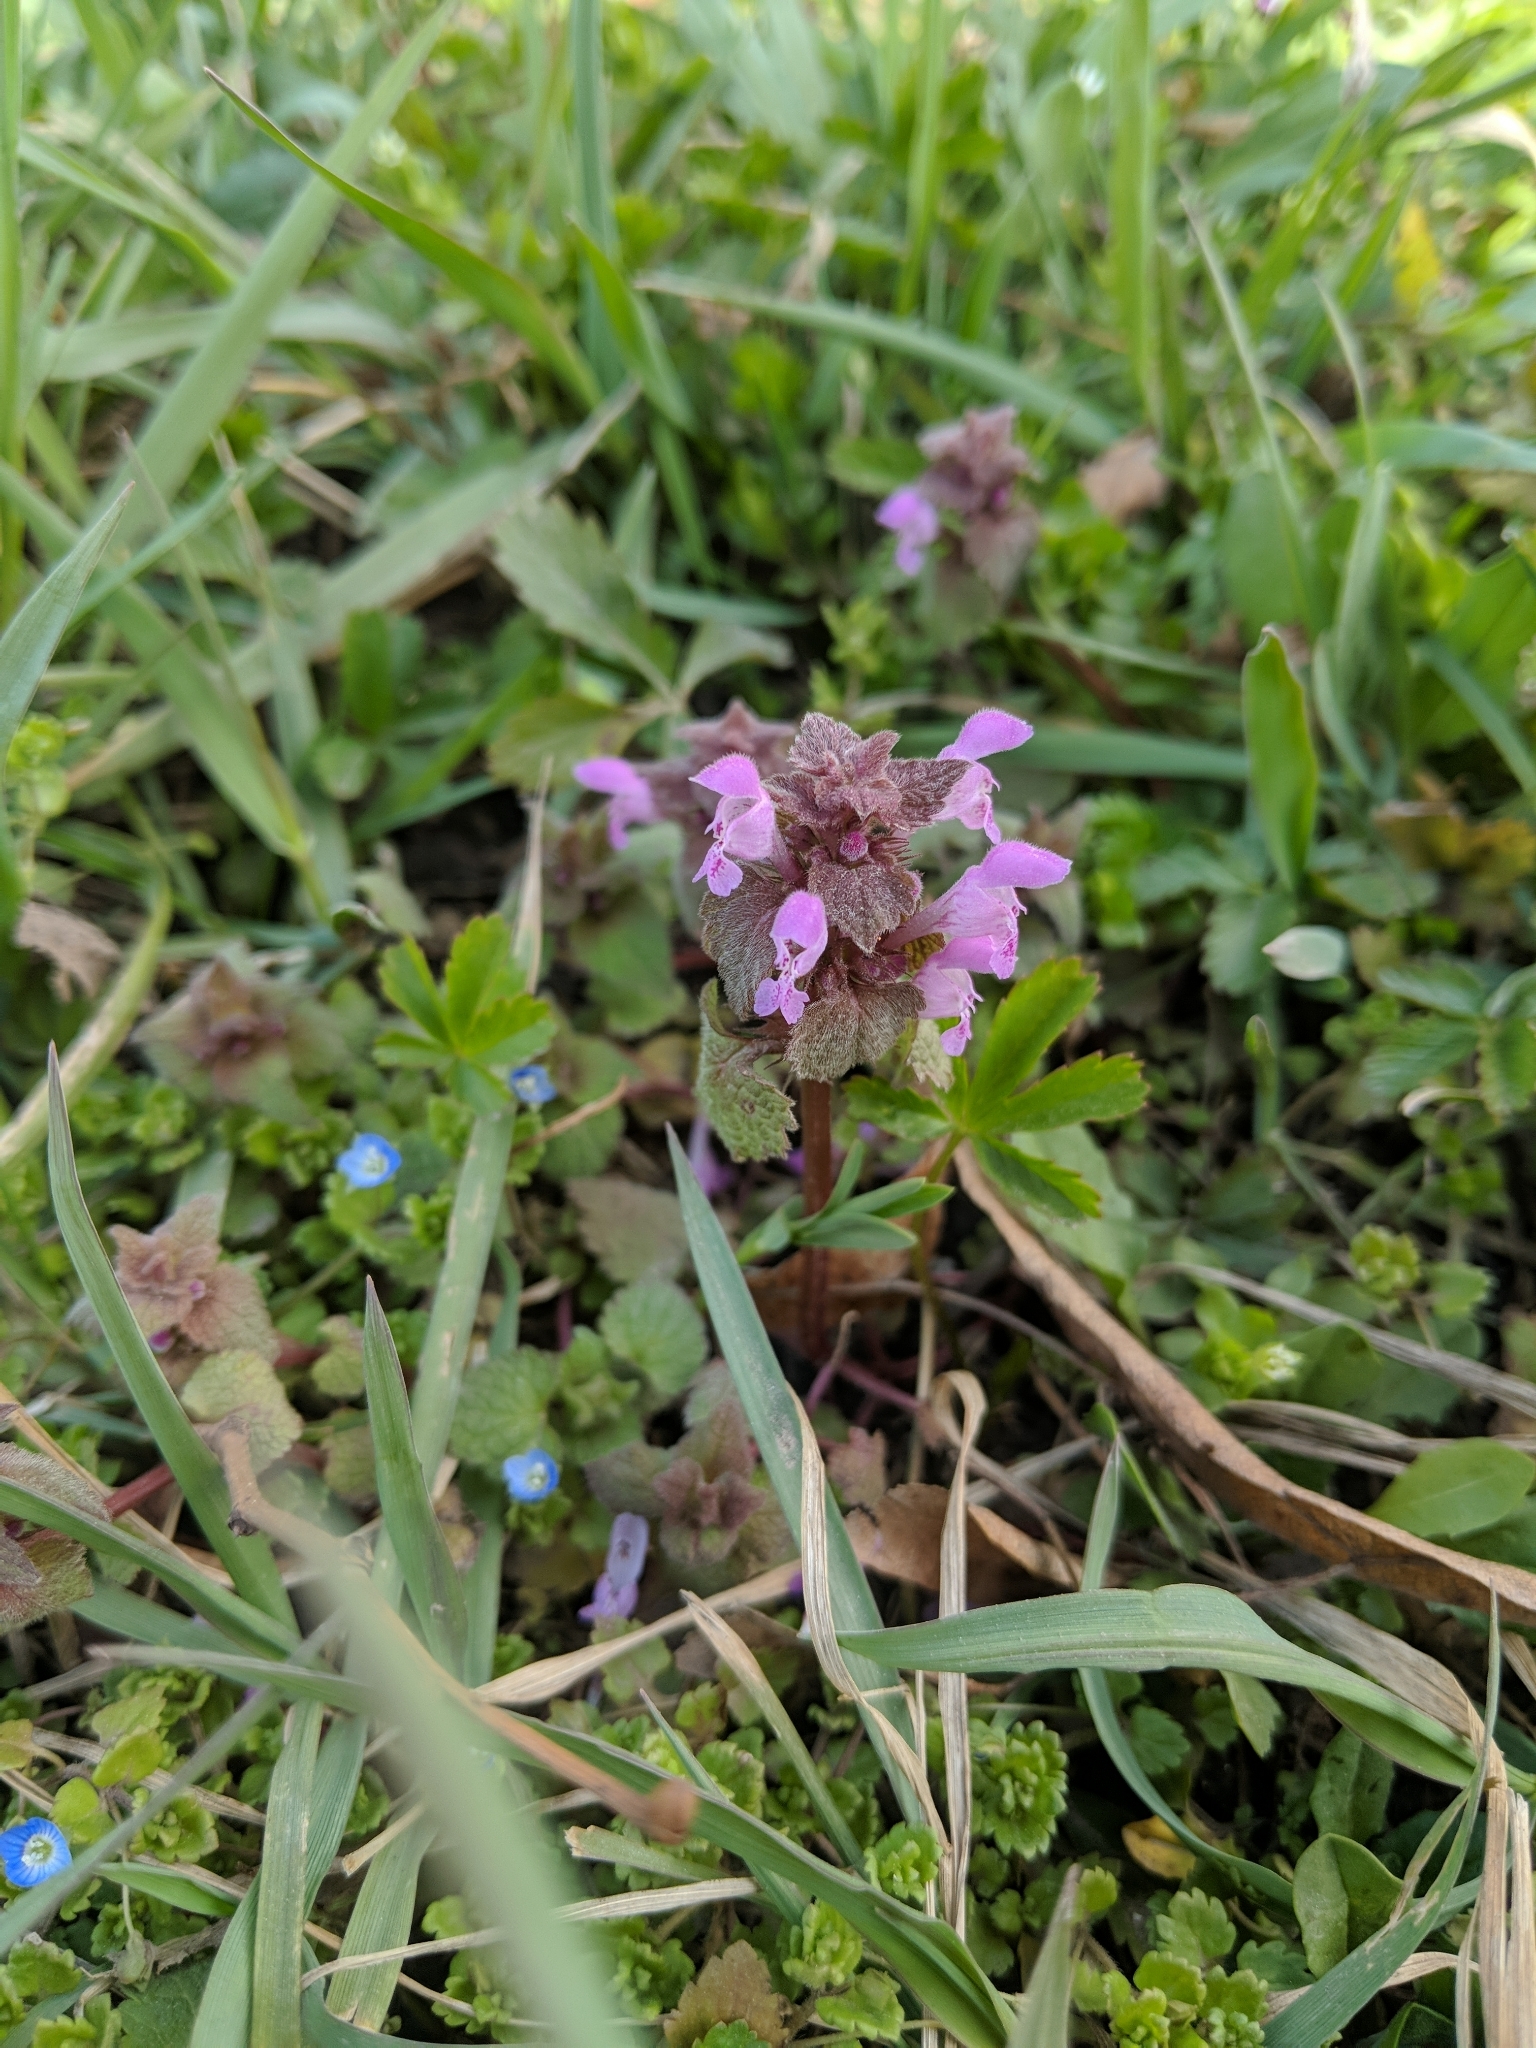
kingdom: Plantae
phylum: Tracheophyta
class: Magnoliopsida
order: Lamiales
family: Lamiaceae
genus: Lamium
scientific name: Lamium purpureum
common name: Red dead-nettle
